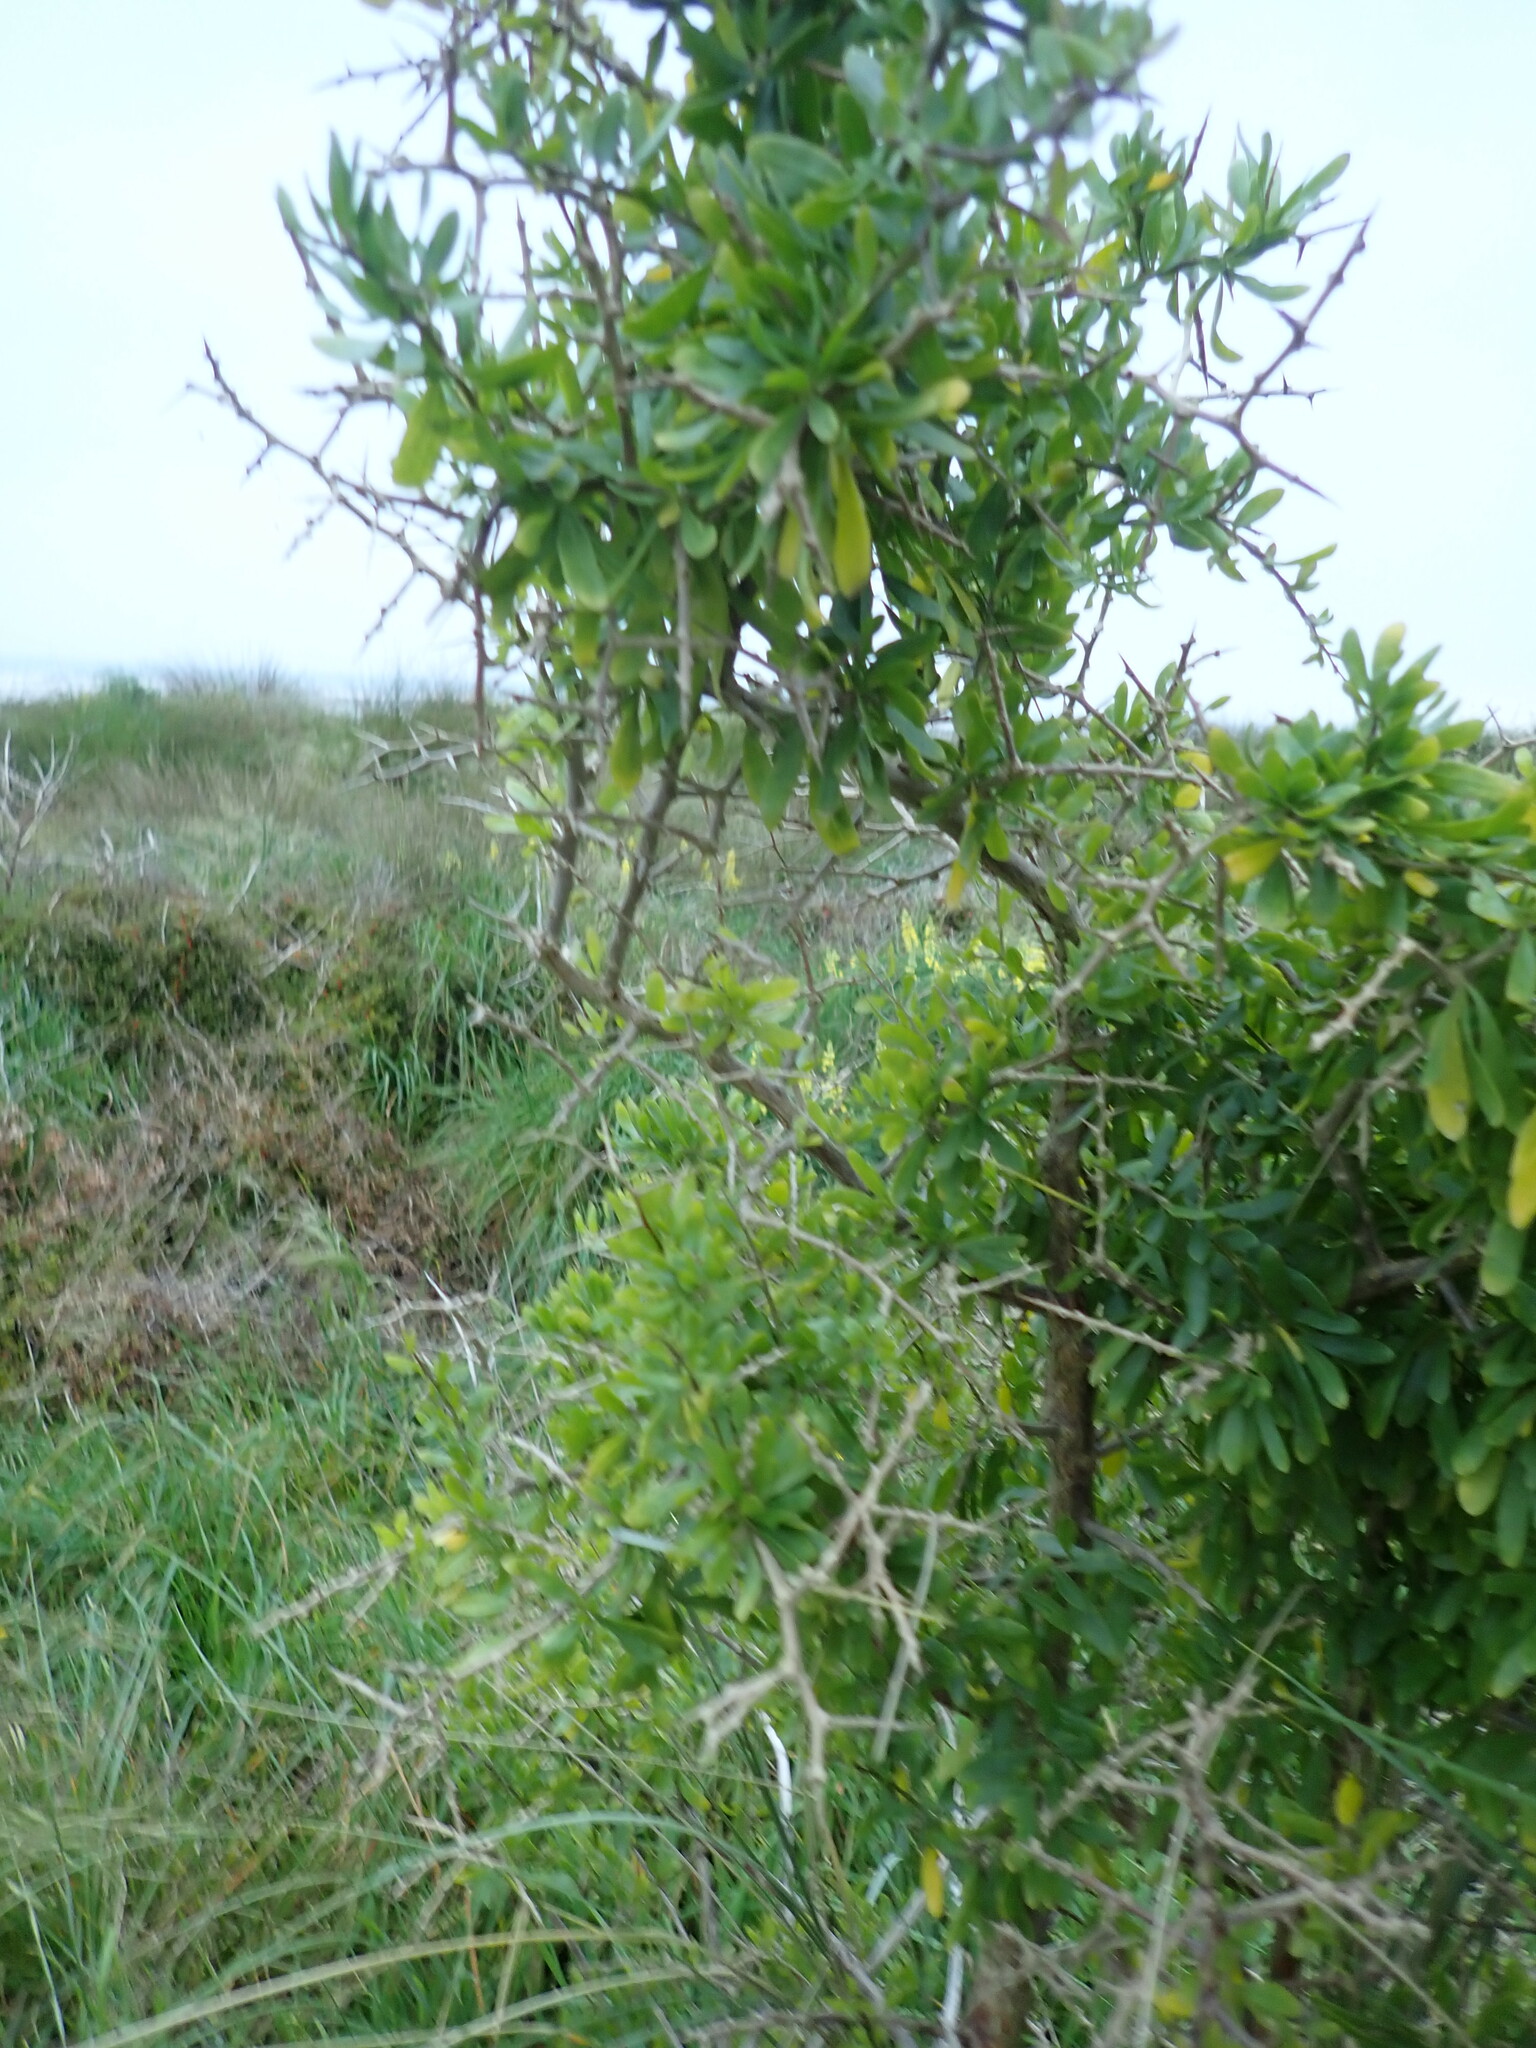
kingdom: Plantae
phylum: Tracheophyta
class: Magnoliopsida
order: Solanales
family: Solanaceae
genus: Lycium
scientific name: Lycium ferocissimum
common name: African boxthorn
